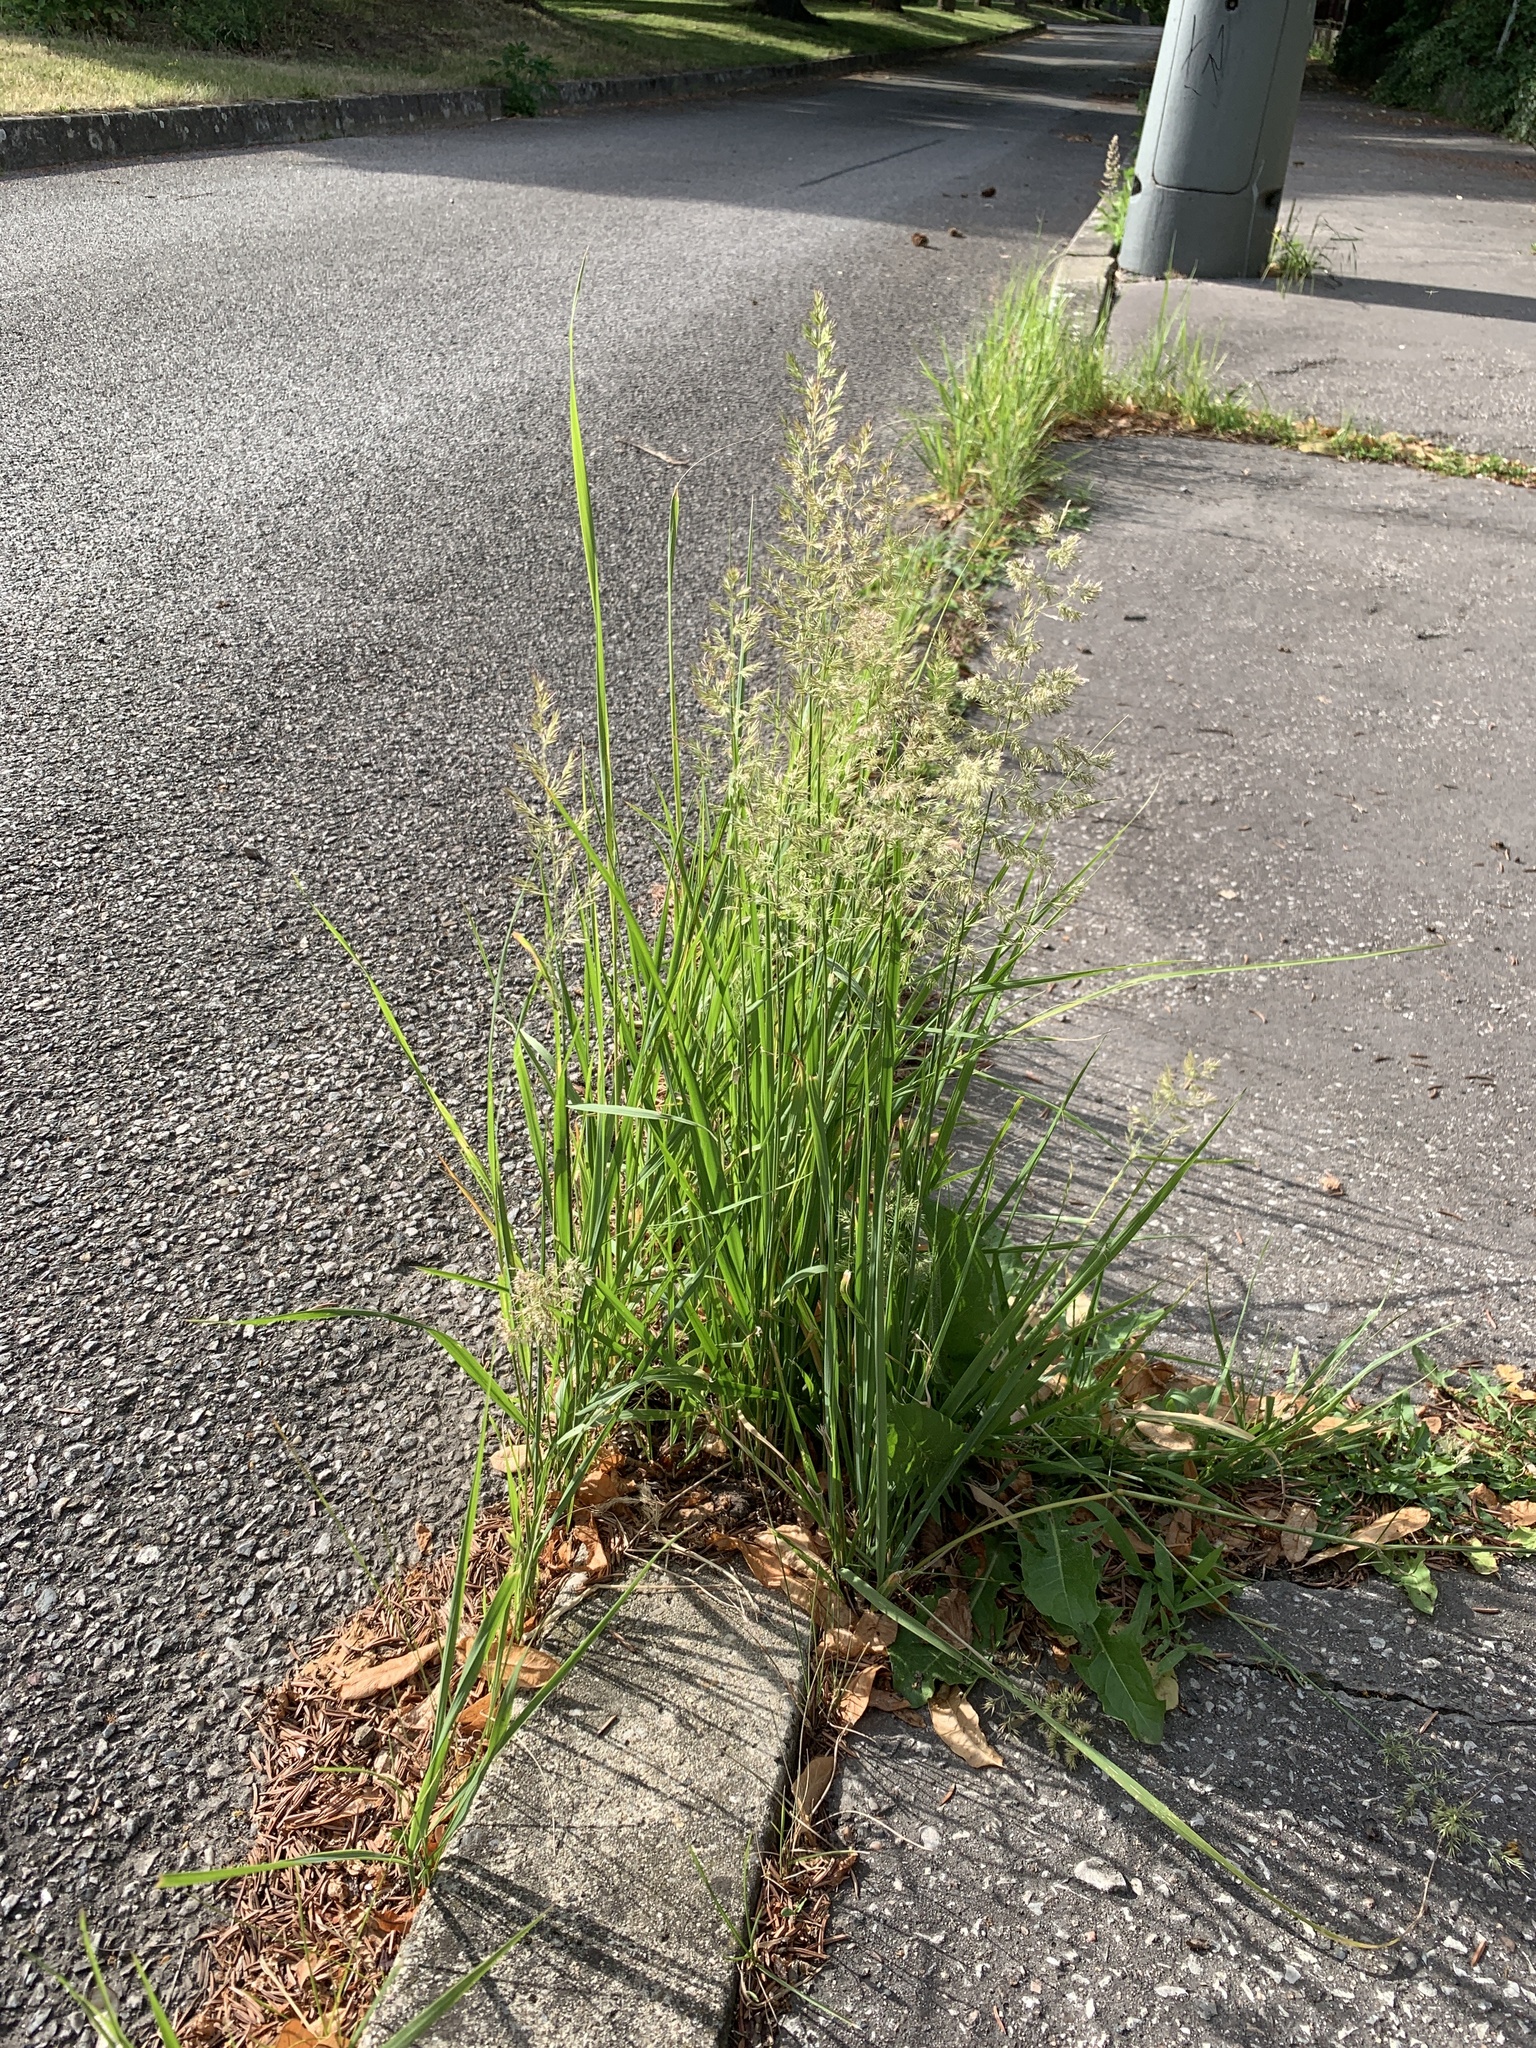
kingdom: Plantae
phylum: Tracheophyta
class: Liliopsida
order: Poales
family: Poaceae
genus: Calamagrostis
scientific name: Calamagrostis epigejos
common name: Wood small-reed
